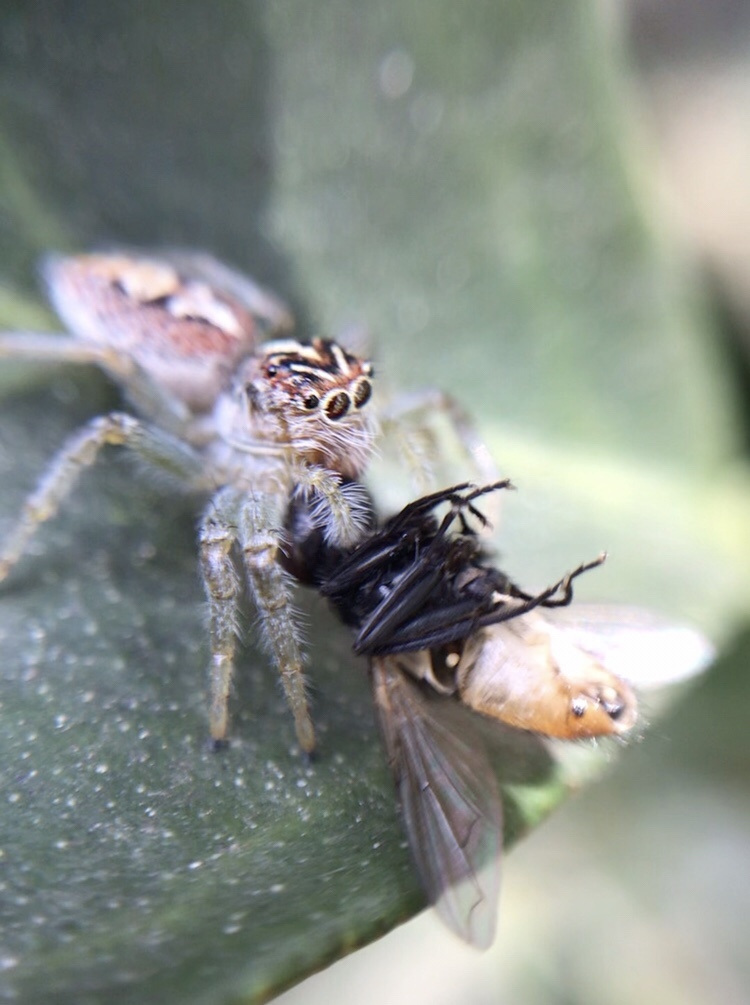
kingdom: Animalia
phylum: Arthropoda
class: Arachnida
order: Araneae
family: Salticidae
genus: Frigga
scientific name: Frigga
